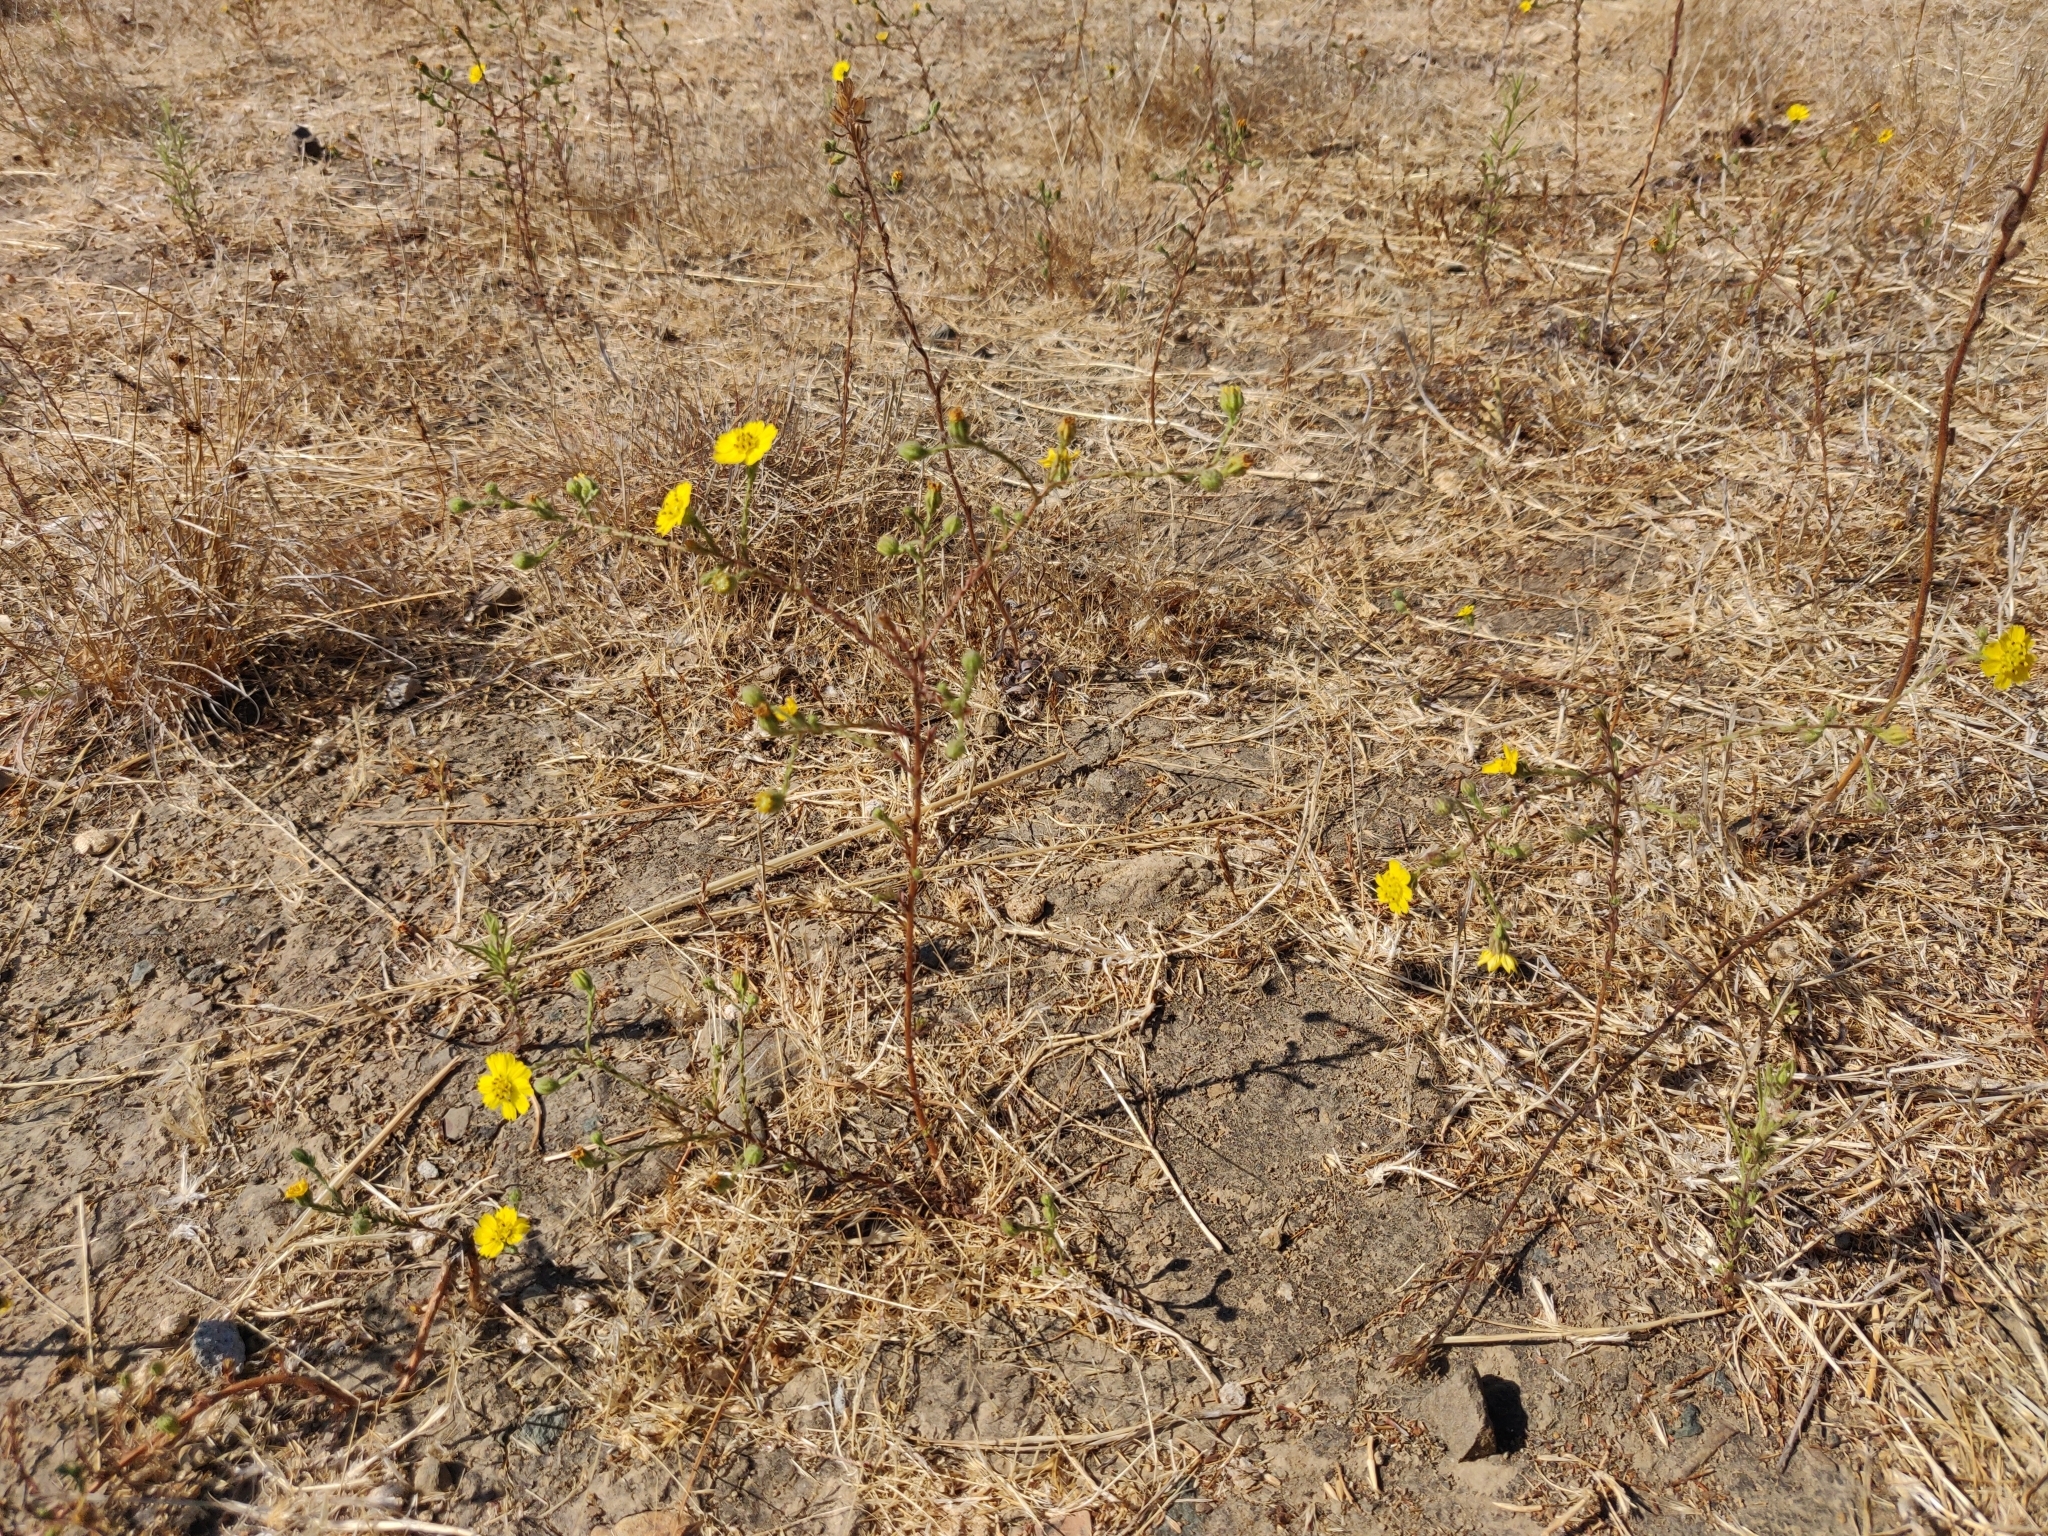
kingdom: Plantae
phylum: Tracheophyta
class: Magnoliopsida
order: Asterales
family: Asteraceae
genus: Deinandra
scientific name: Deinandra paniculata
